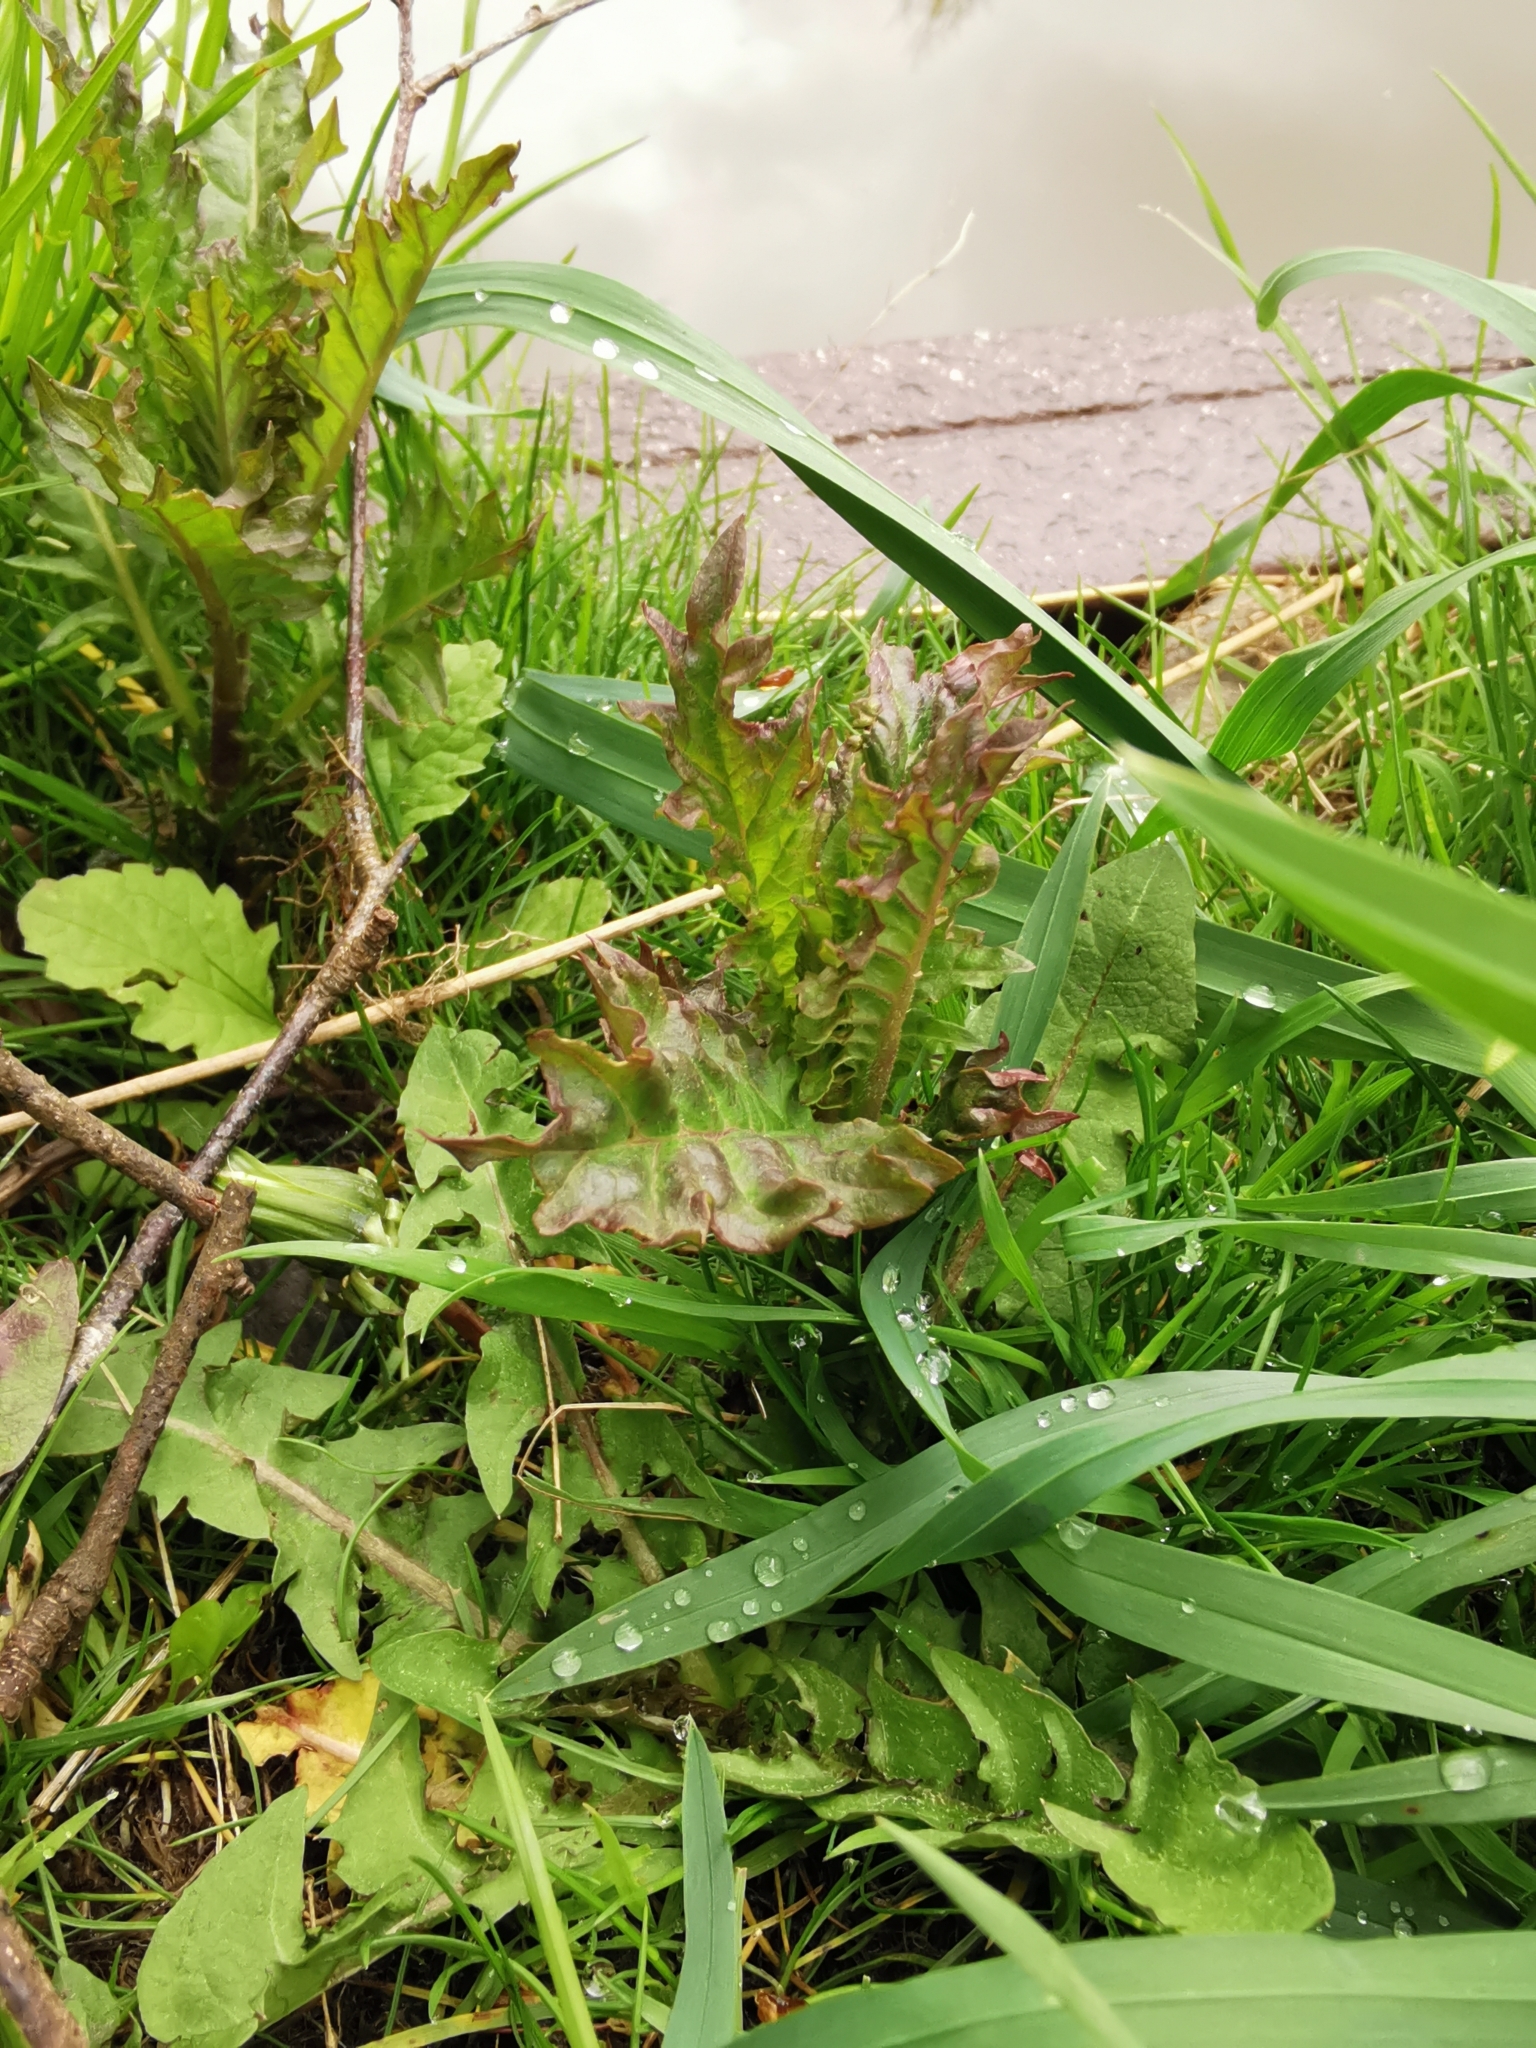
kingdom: Plantae
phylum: Tracheophyta
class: Magnoliopsida
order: Lamiales
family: Lamiaceae
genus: Lycopus
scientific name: Lycopus europaeus
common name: European bugleweed
